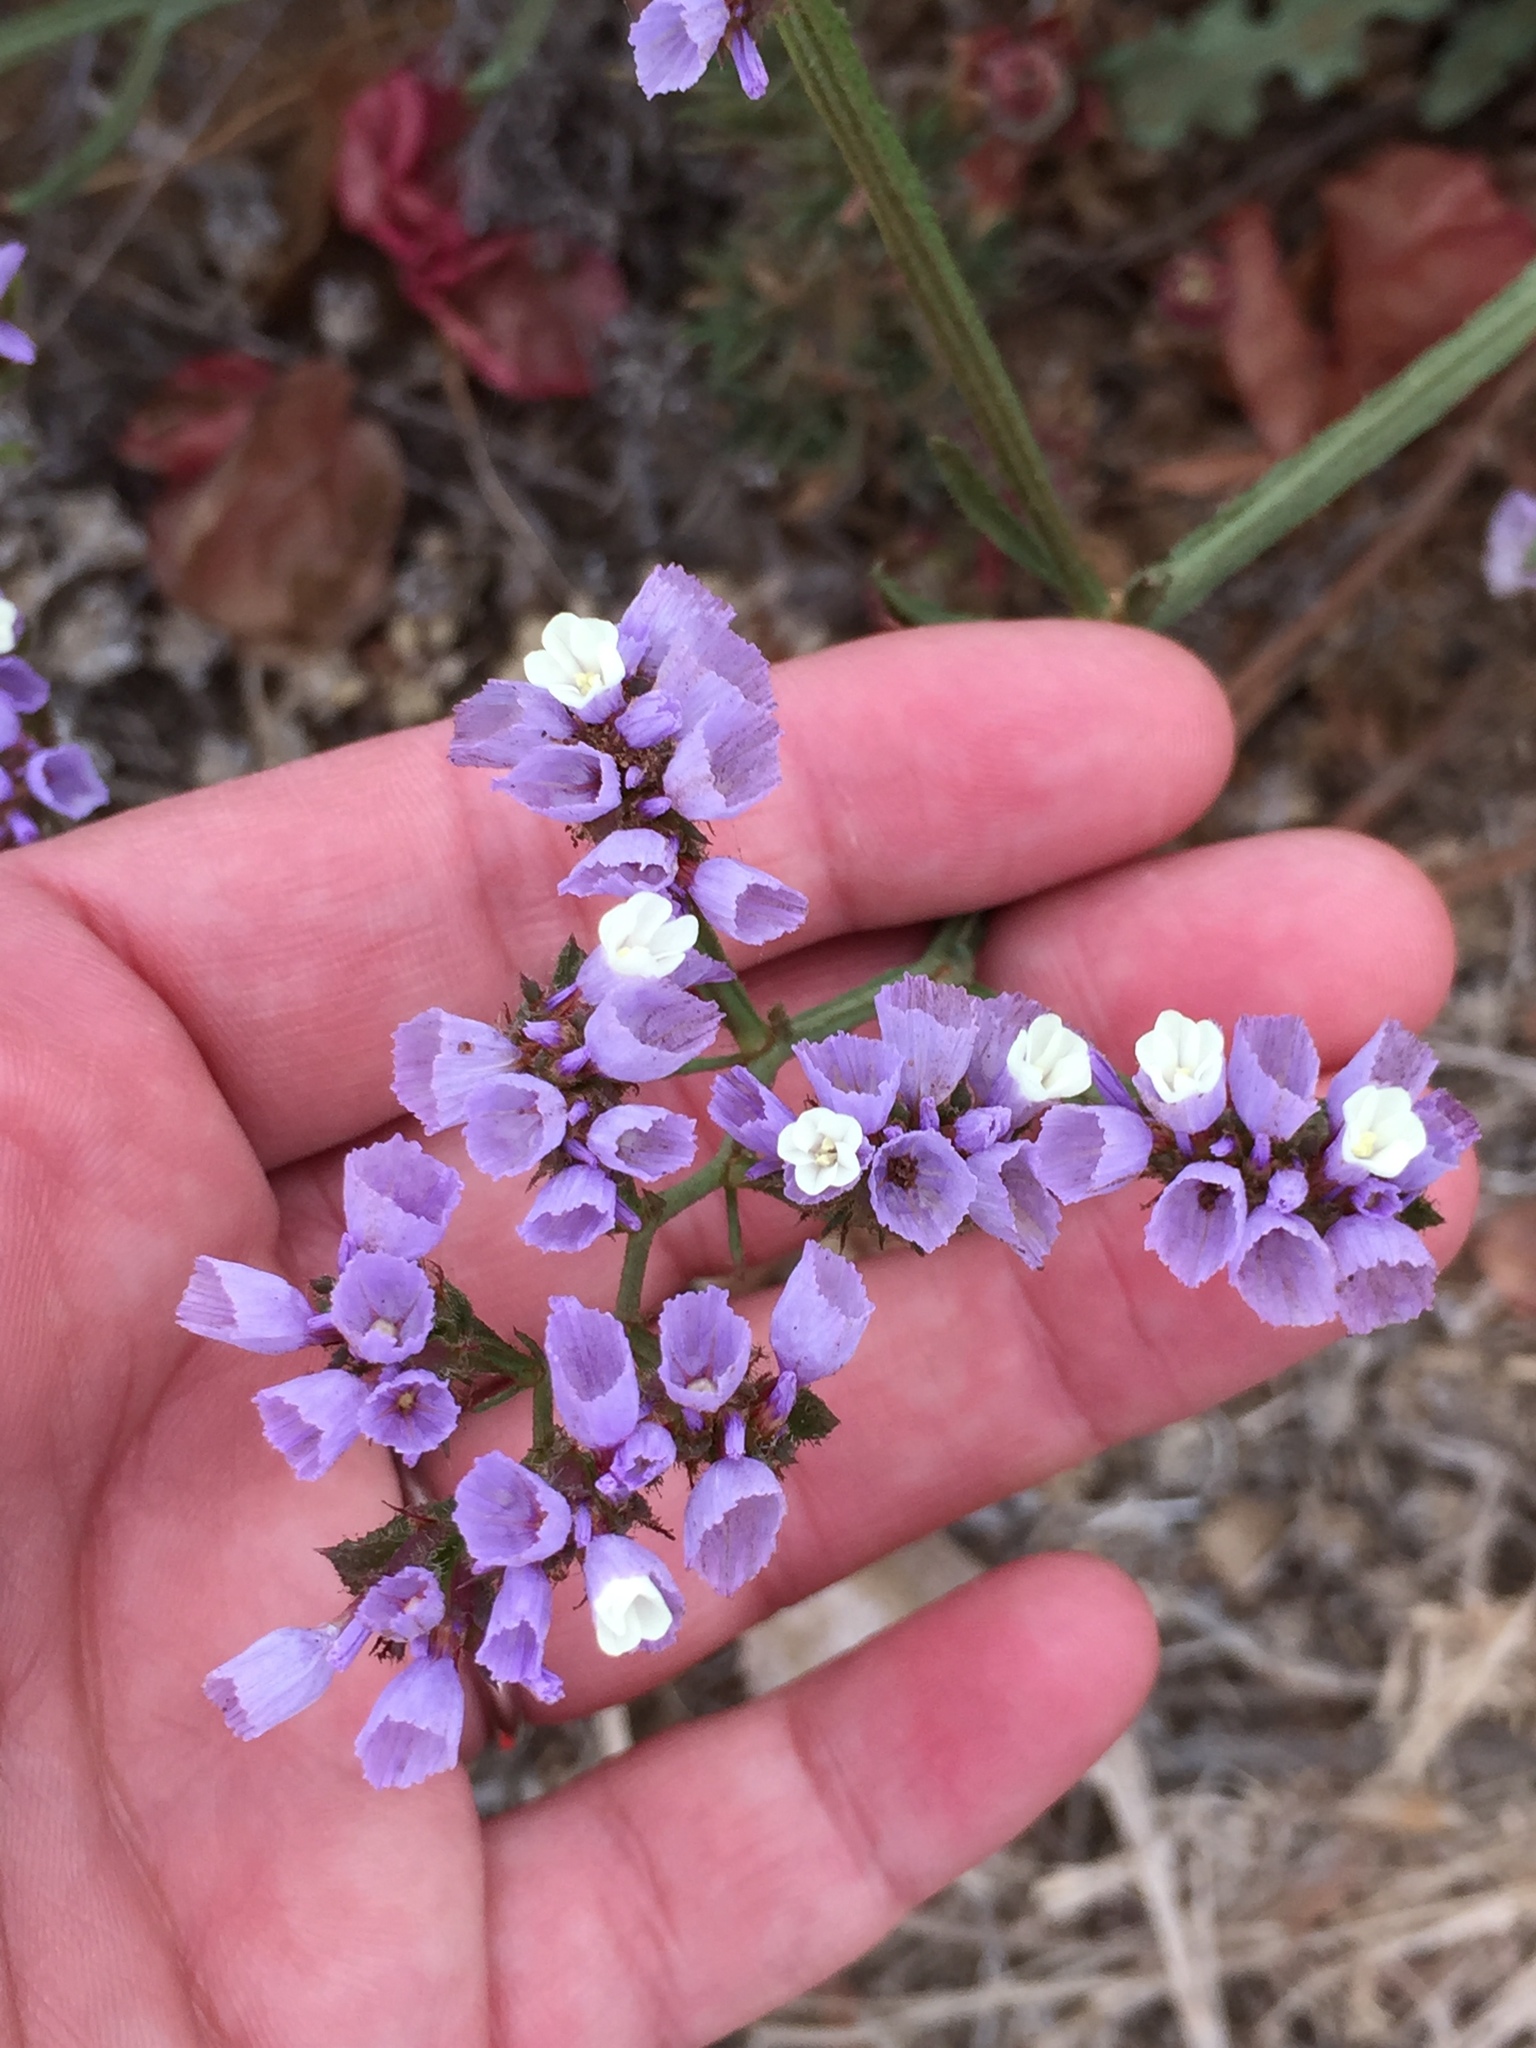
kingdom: Plantae
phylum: Tracheophyta
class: Magnoliopsida
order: Caryophyllales
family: Plumbaginaceae
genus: Limonium
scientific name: Limonium sinuatum
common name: Statice
